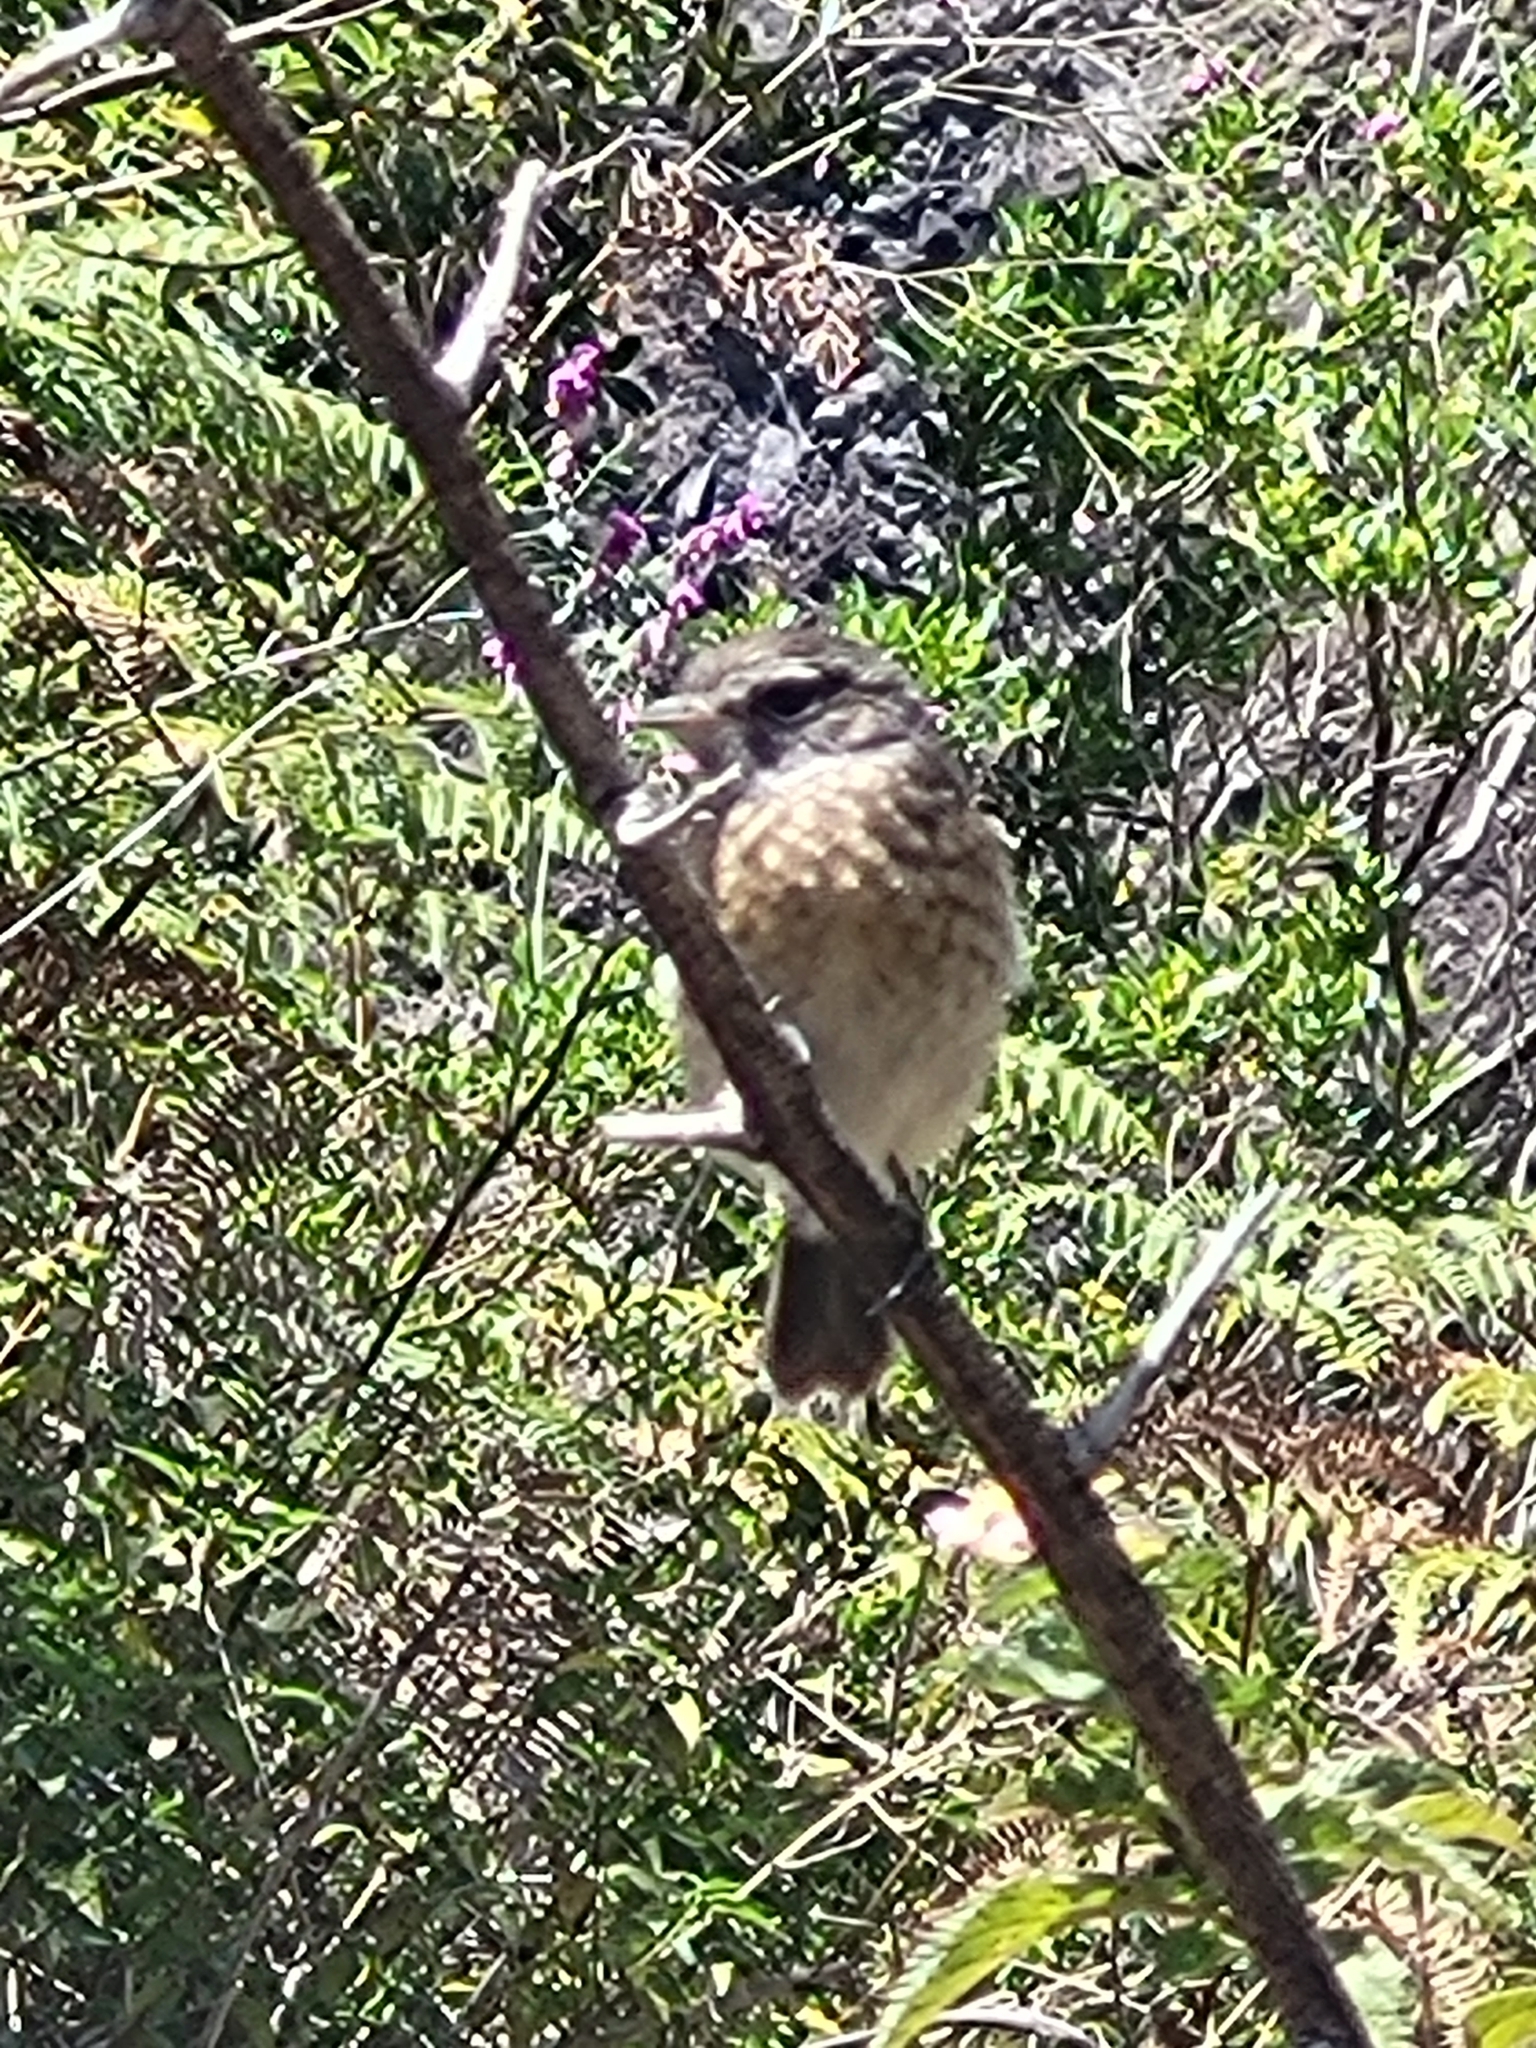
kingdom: Animalia
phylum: Chordata
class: Aves
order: Passeriformes
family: Muscicapidae
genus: Saxicola
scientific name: Saxicola tectes
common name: Reunion stonechat
